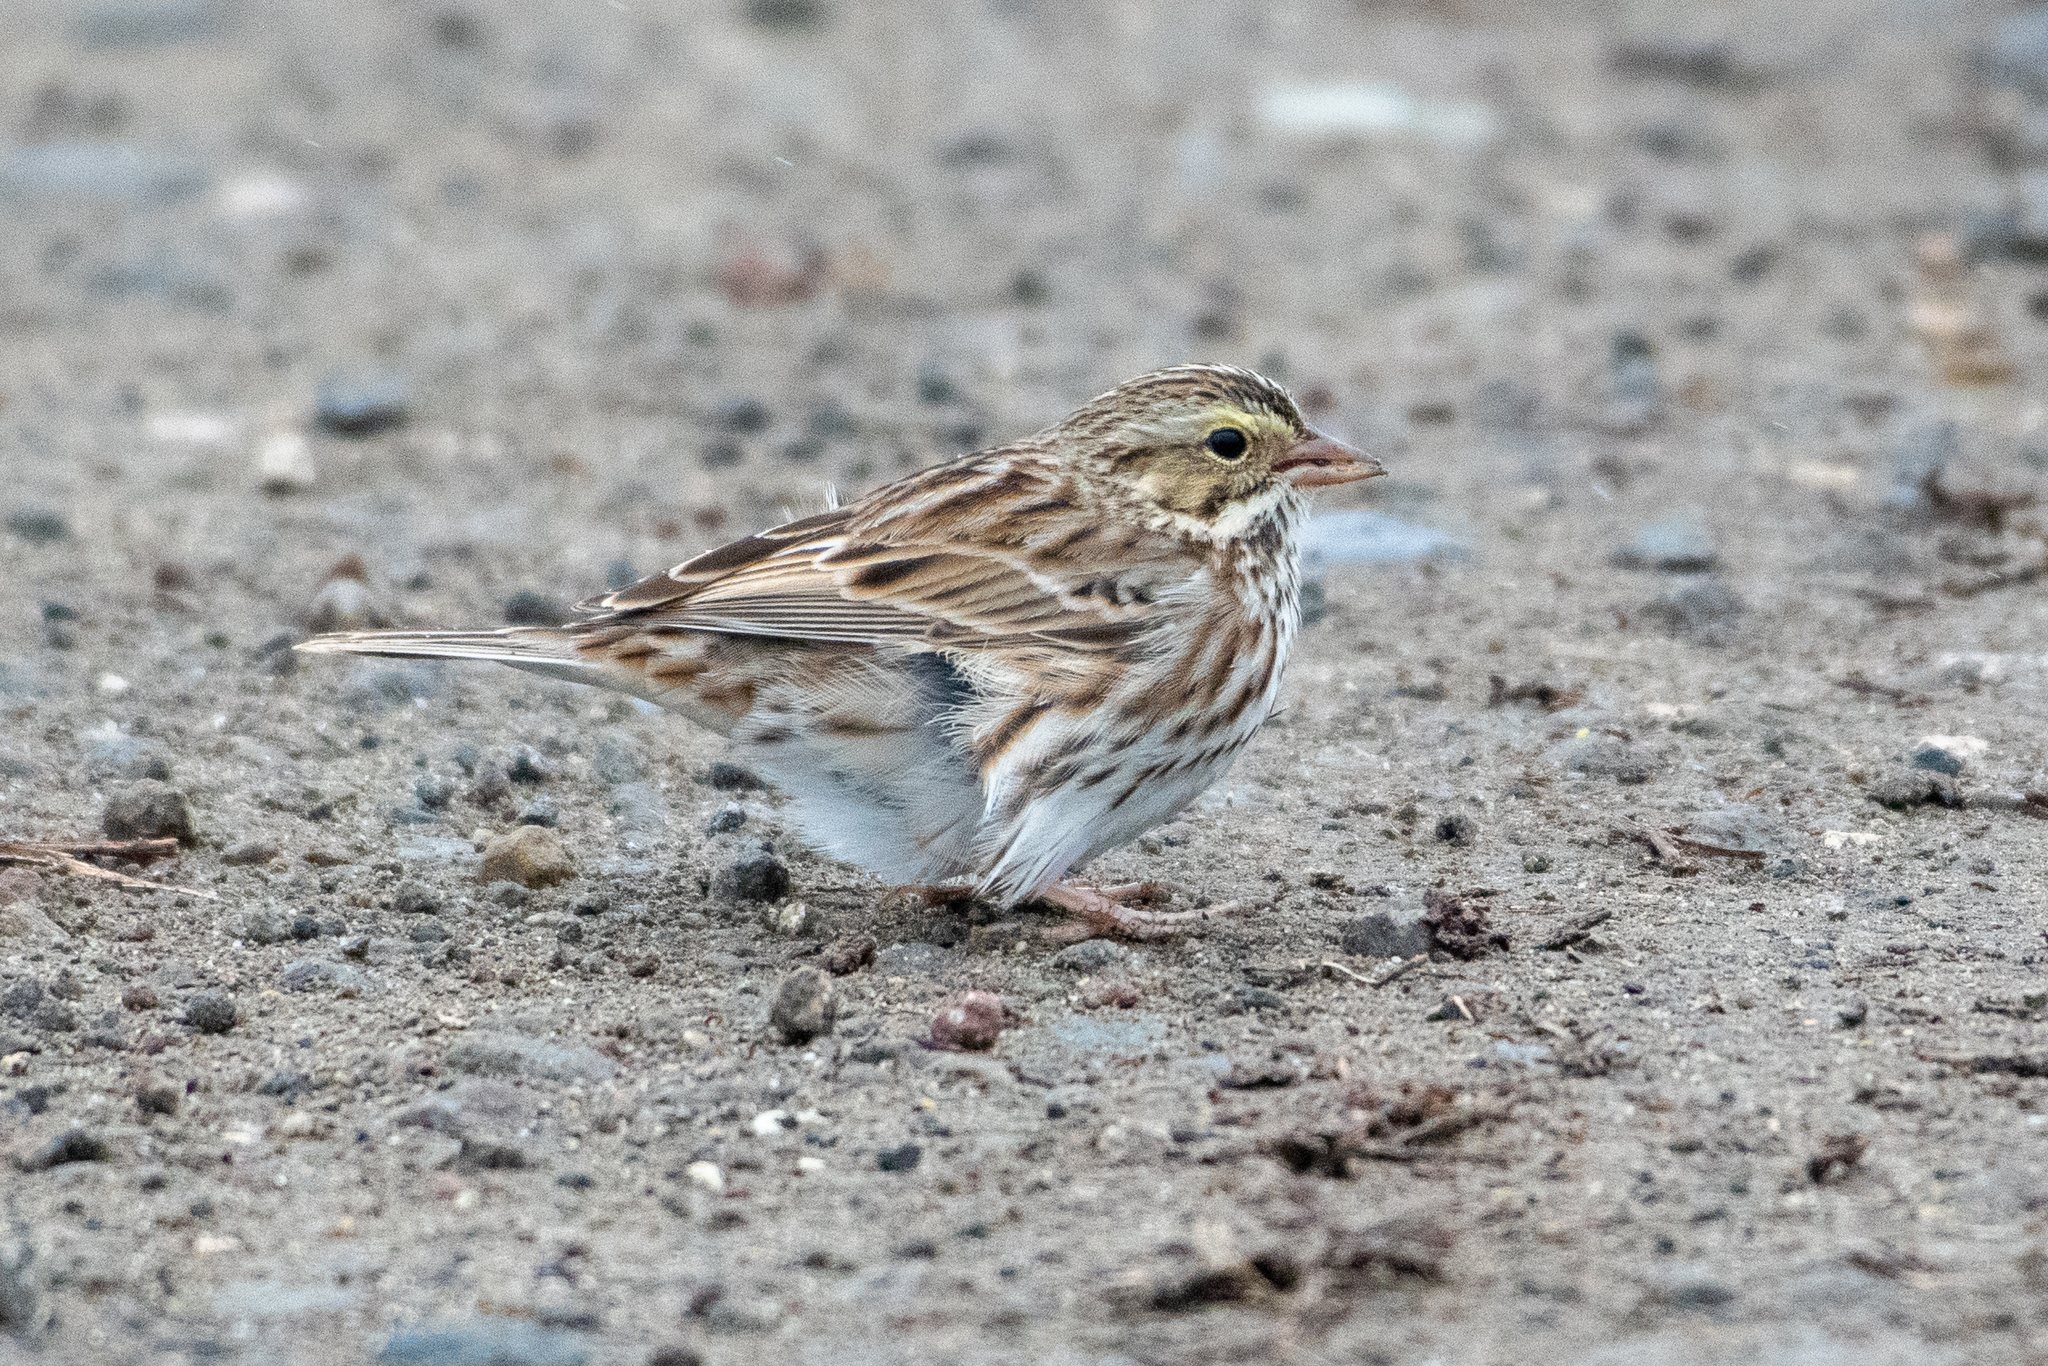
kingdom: Animalia
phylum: Chordata
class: Aves
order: Passeriformes
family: Passerellidae
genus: Passerculus
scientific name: Passerculus sandwichensis
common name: Savannah sparrow
